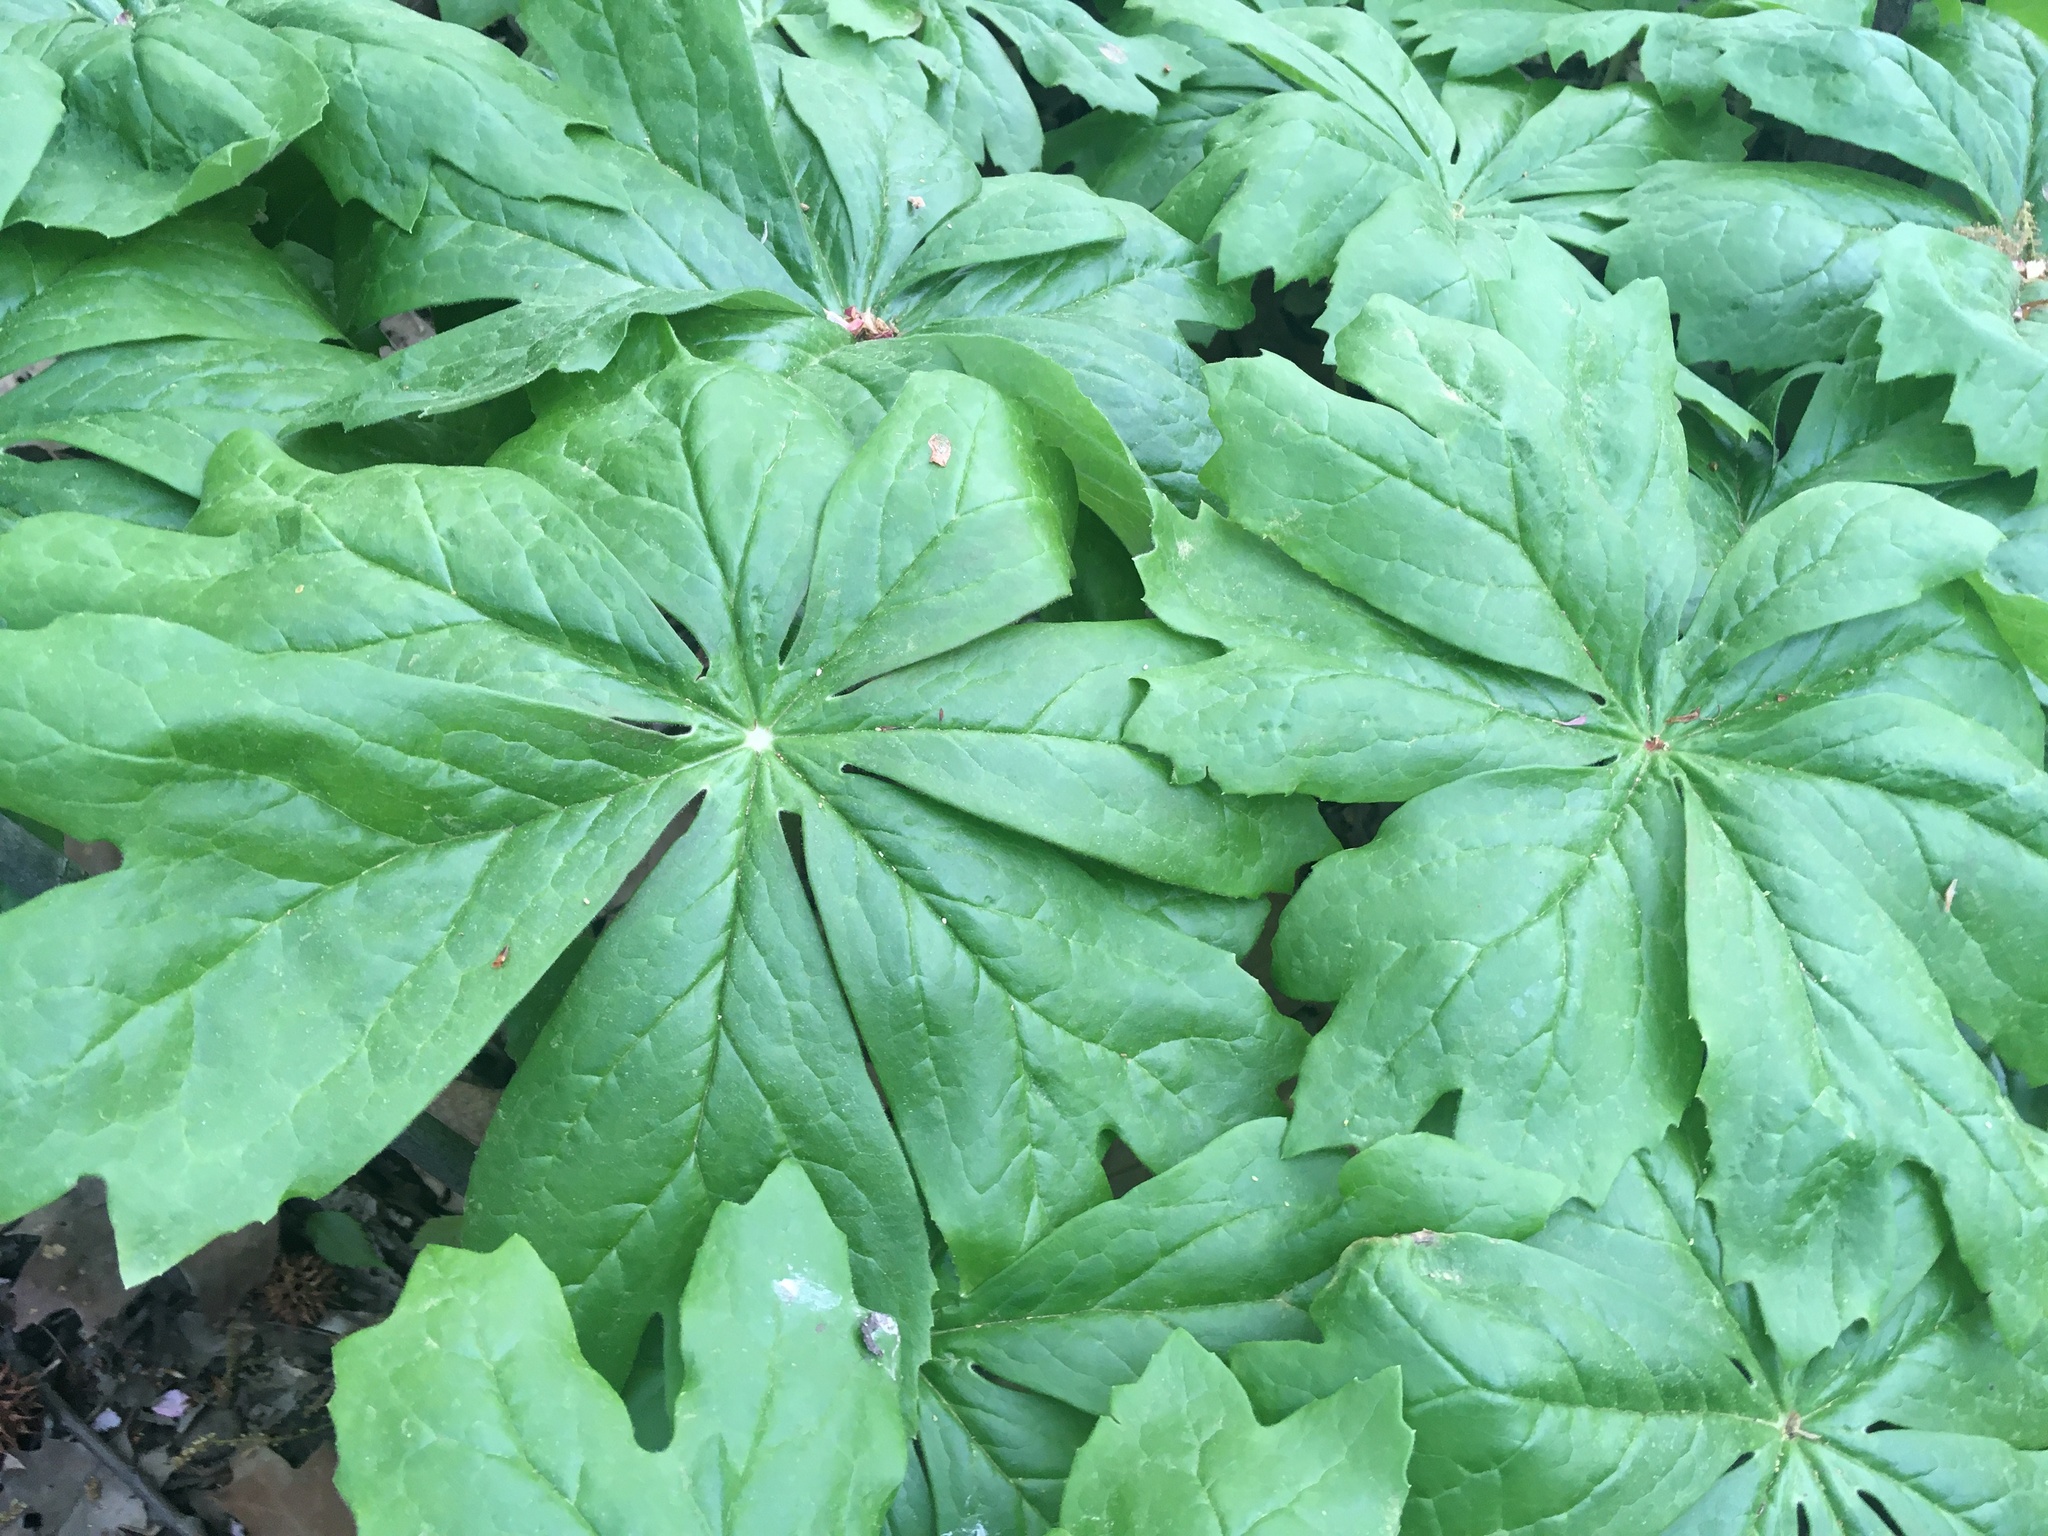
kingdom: Plantae
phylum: Tracheophyta
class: Magnoliopsida
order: Ranunculales
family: Berberidaceae
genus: Podophyllum
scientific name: Podophyllum peltatum
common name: Wild mandrake
